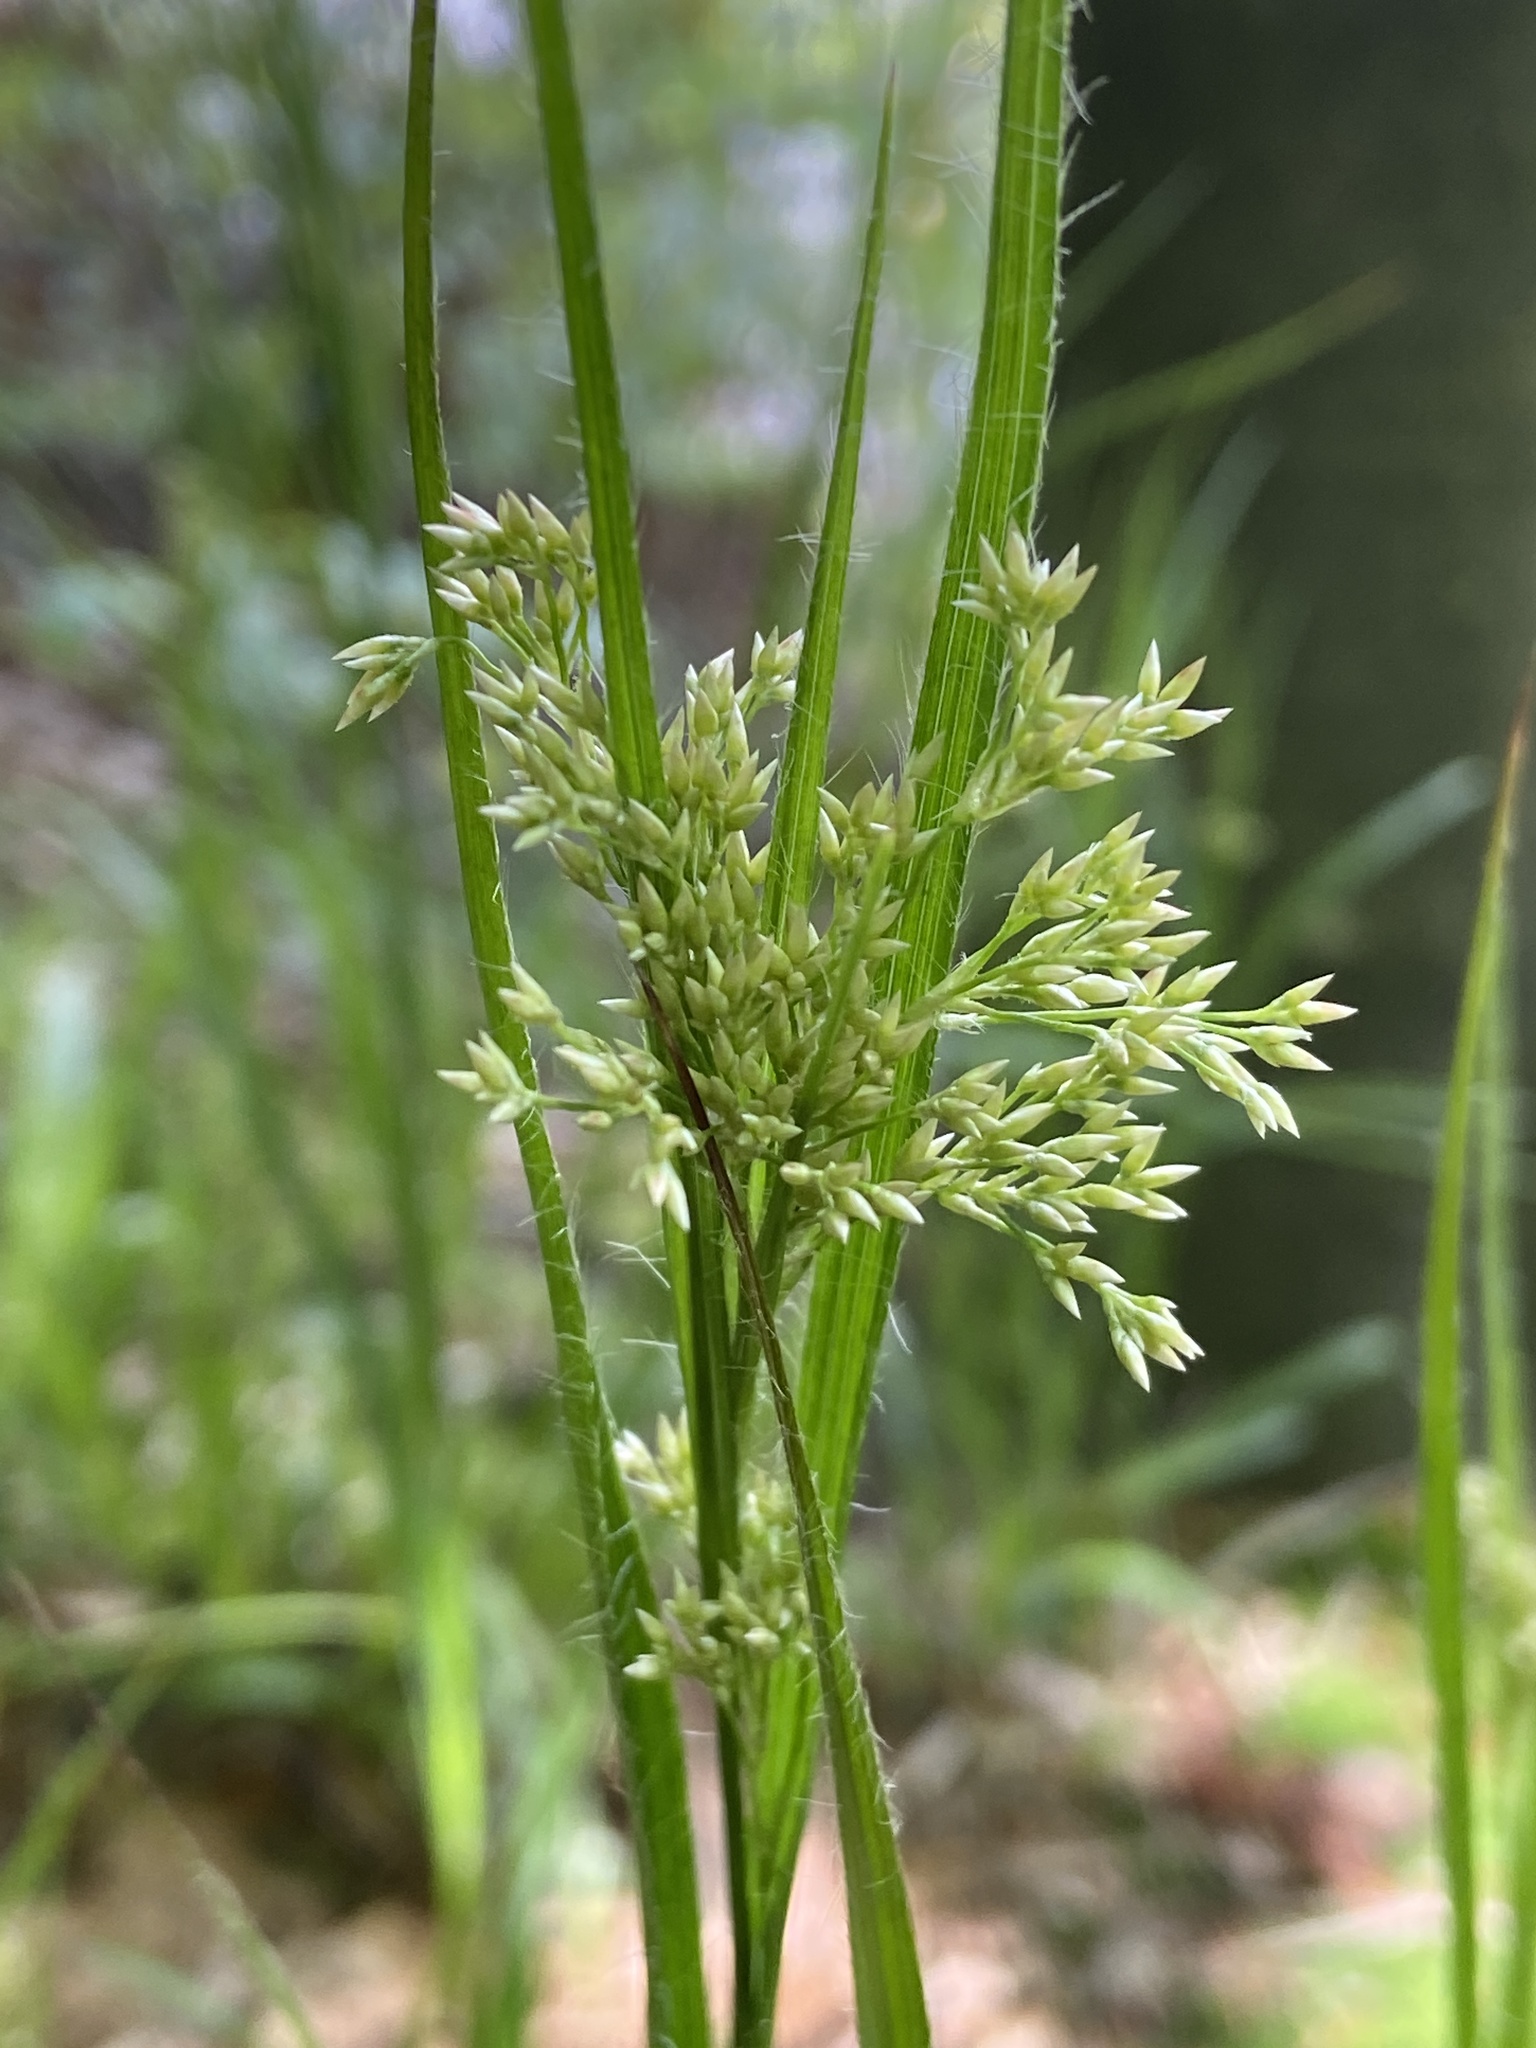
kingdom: Plantae
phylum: Tracheophyta
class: Liliopsida
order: Poales
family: Juncaceae
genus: Luzula
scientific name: Luzula luzuloides
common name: White wood-rush
